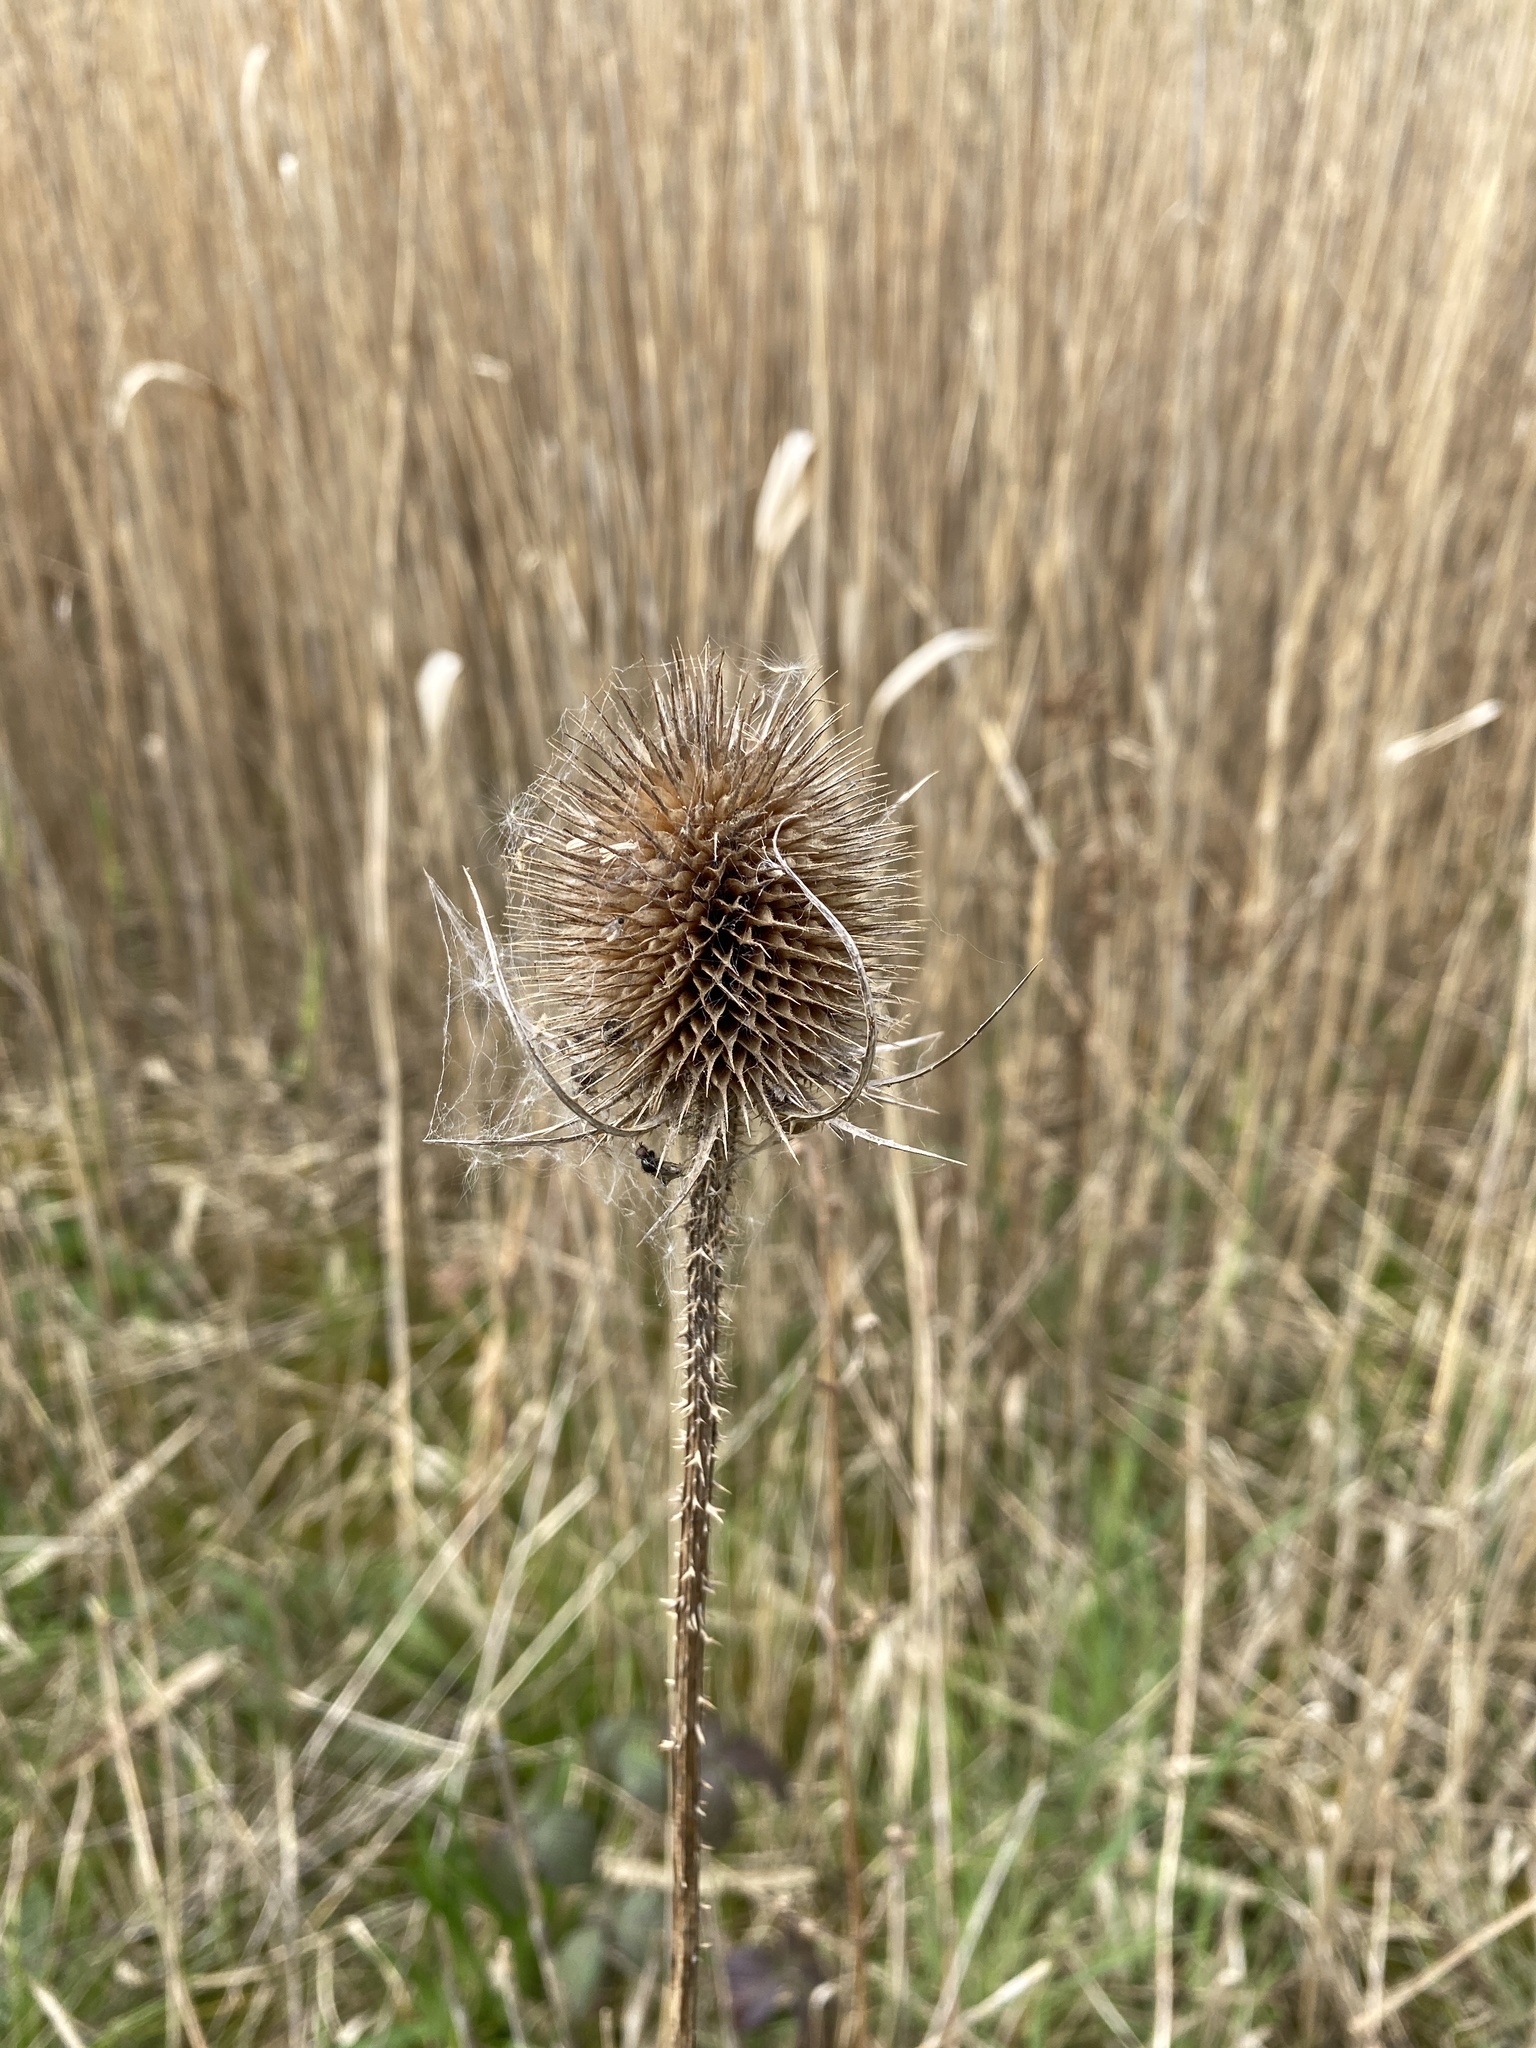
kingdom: Plantae
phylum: Tracheophyta
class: Magnoliopsida
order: Dipsacales
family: Caprifoliaceae
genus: Dipsacus
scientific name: Dipsacus fullonum
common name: Teasel
